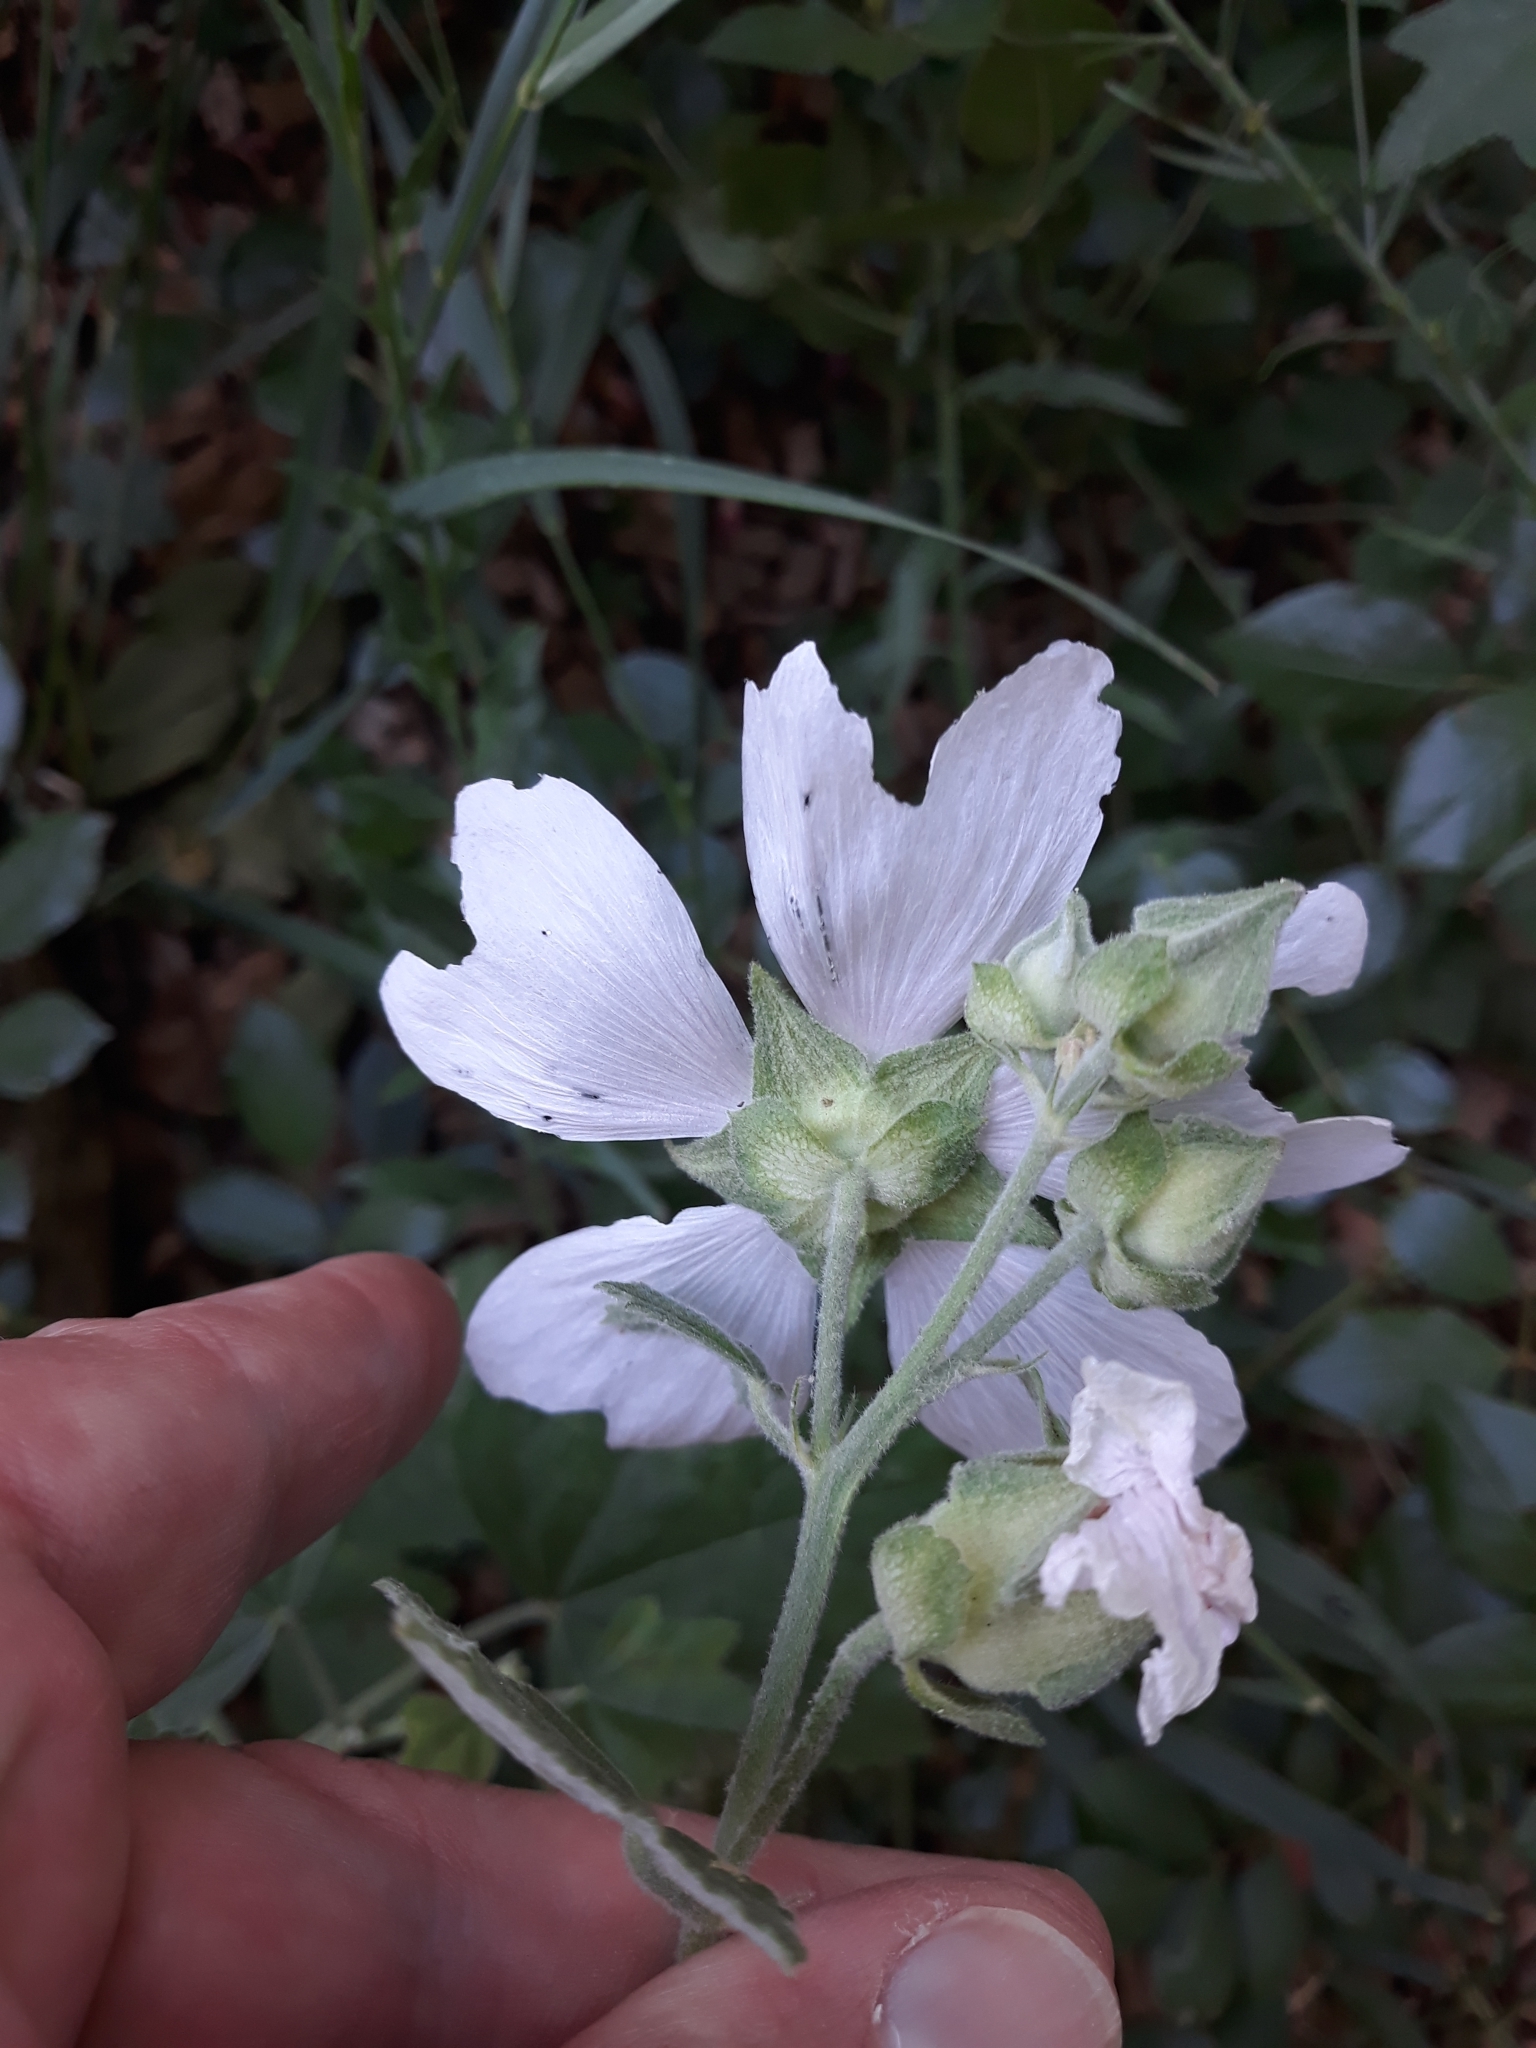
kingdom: Plantae
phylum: Tracheophyta
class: Magnoliopsida
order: Malvales
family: Malvaceae
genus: Althaea
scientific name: Althaea officinalis
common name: Marsh-mallow
